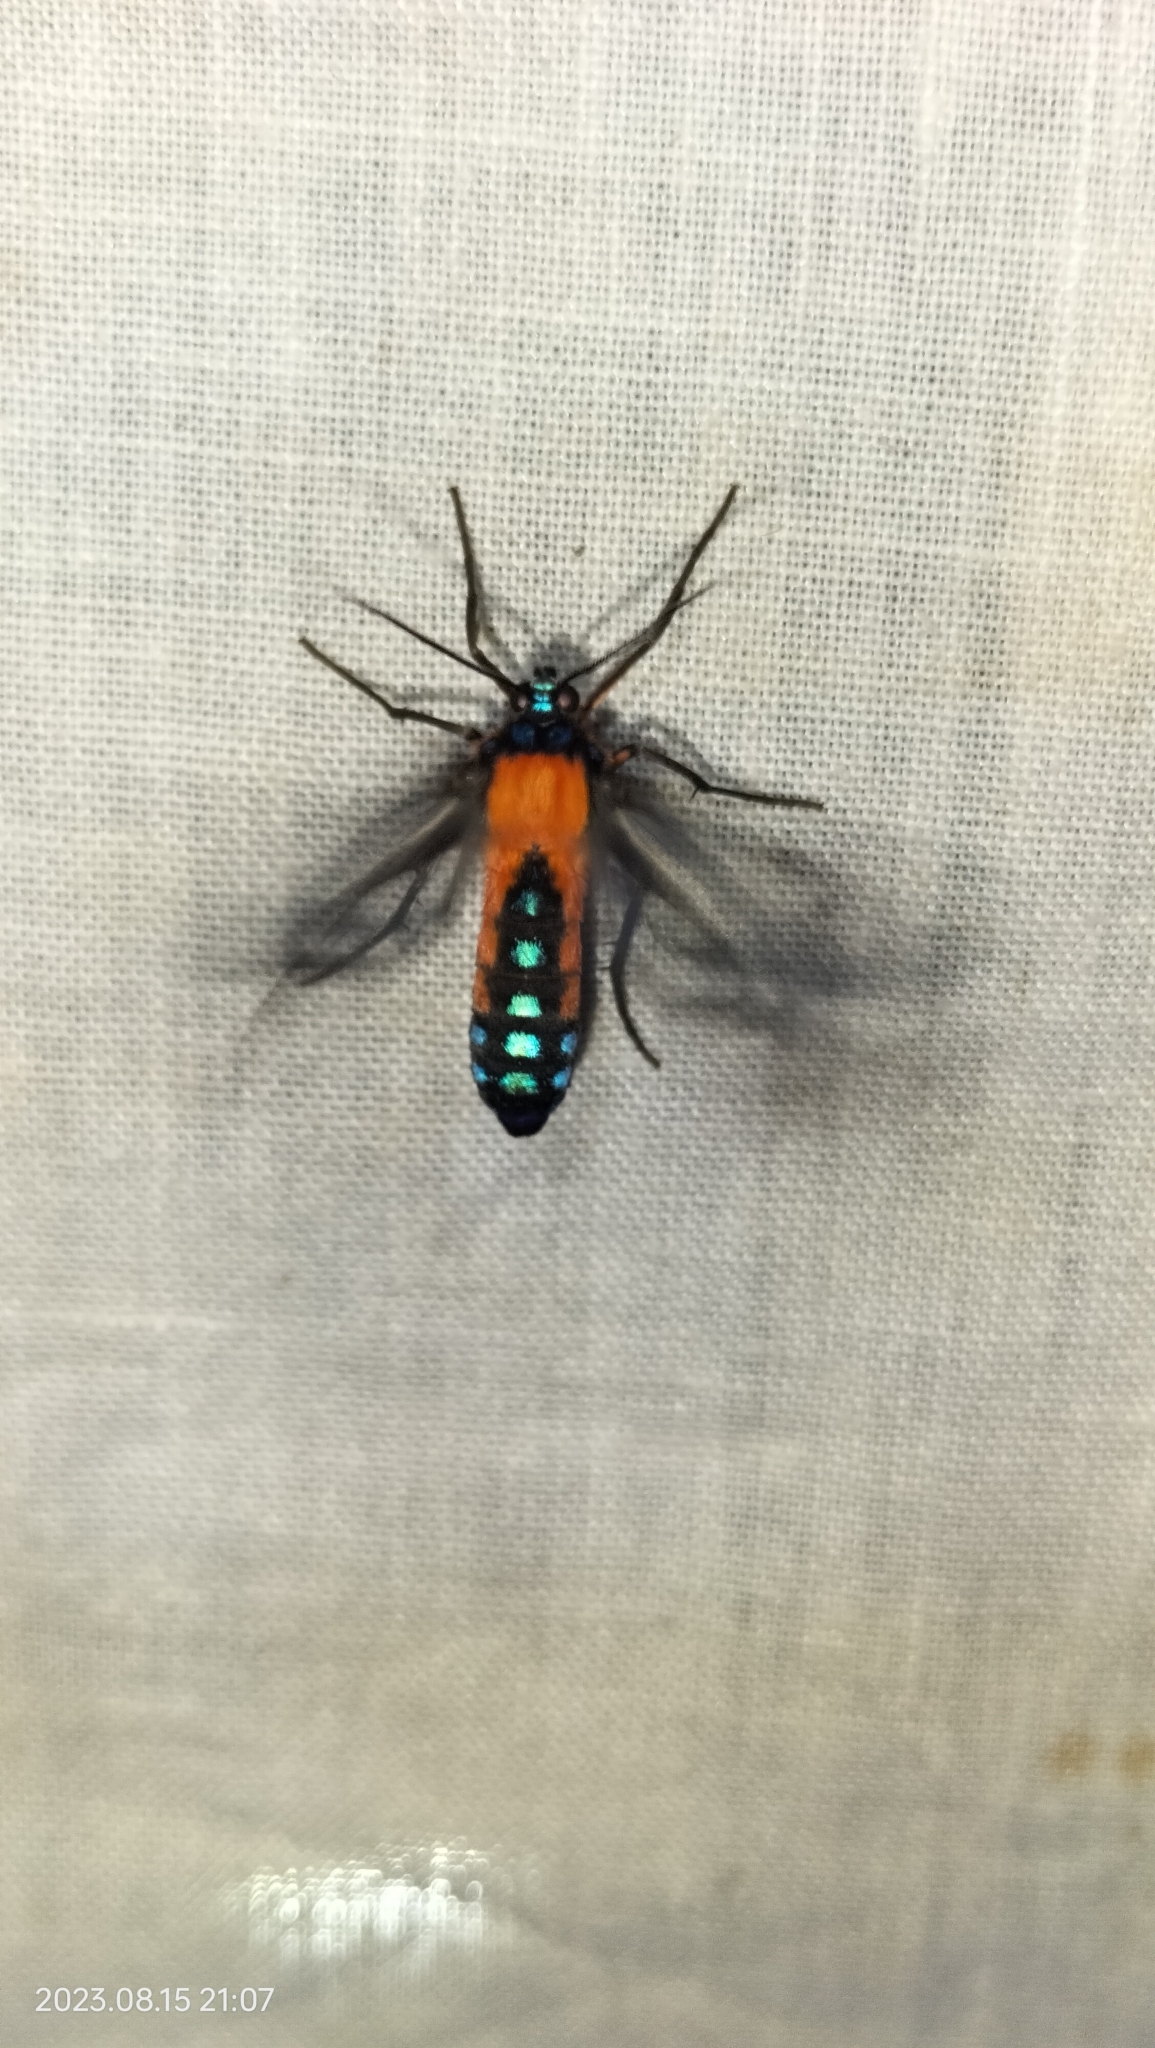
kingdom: Animalia
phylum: Arthropoda
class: Insecta
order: Lepidoptera
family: Erebidae
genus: Cosmosoma
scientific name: Cosmosoma oroyana
